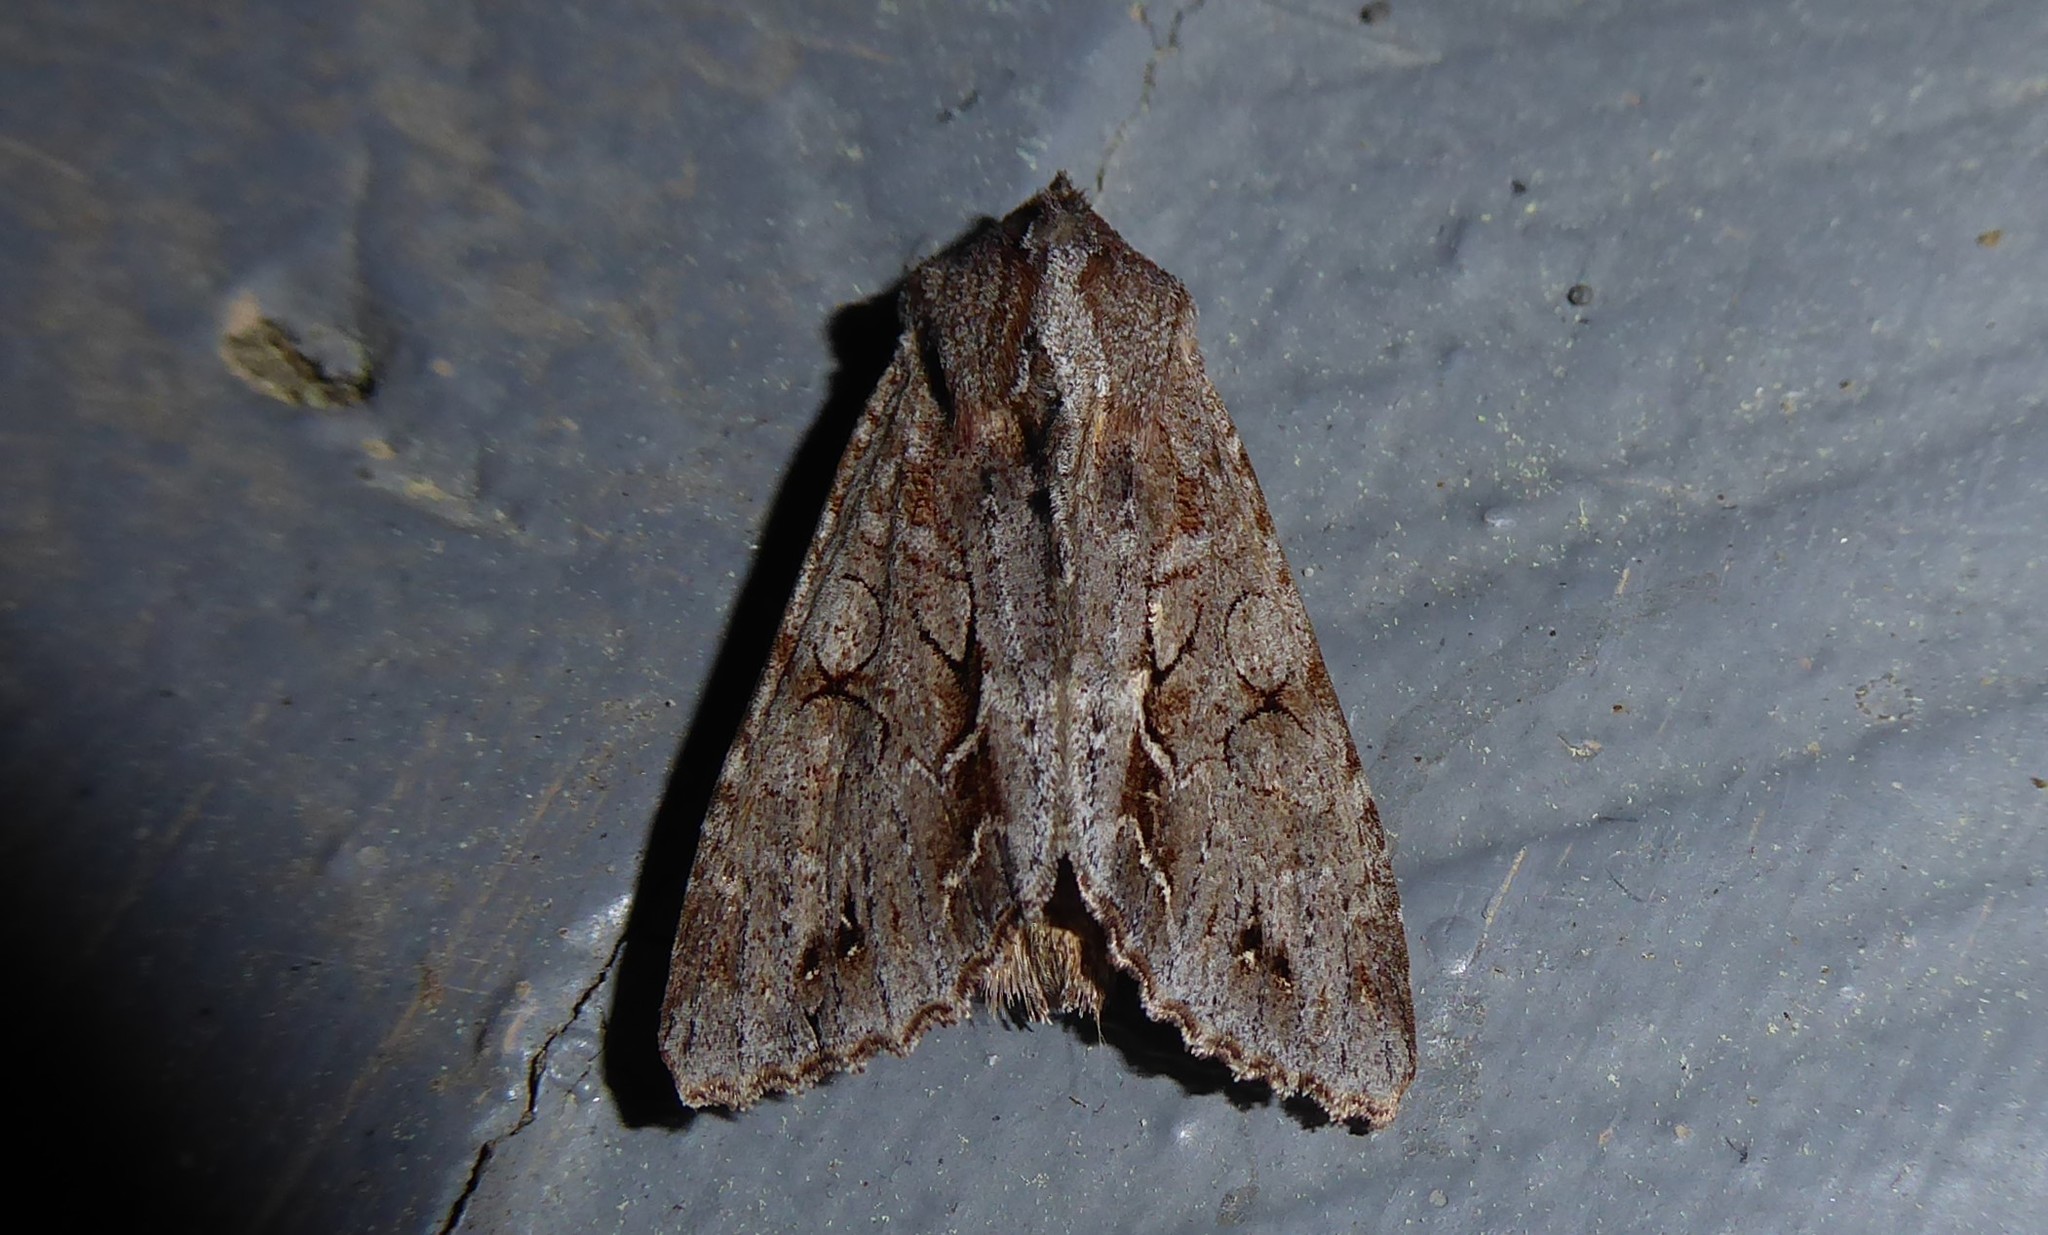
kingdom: Animalia
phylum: Arthropoda
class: Insecta
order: Lepidoptera
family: Noctuidae
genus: Ichneutica
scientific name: Ichneutica
